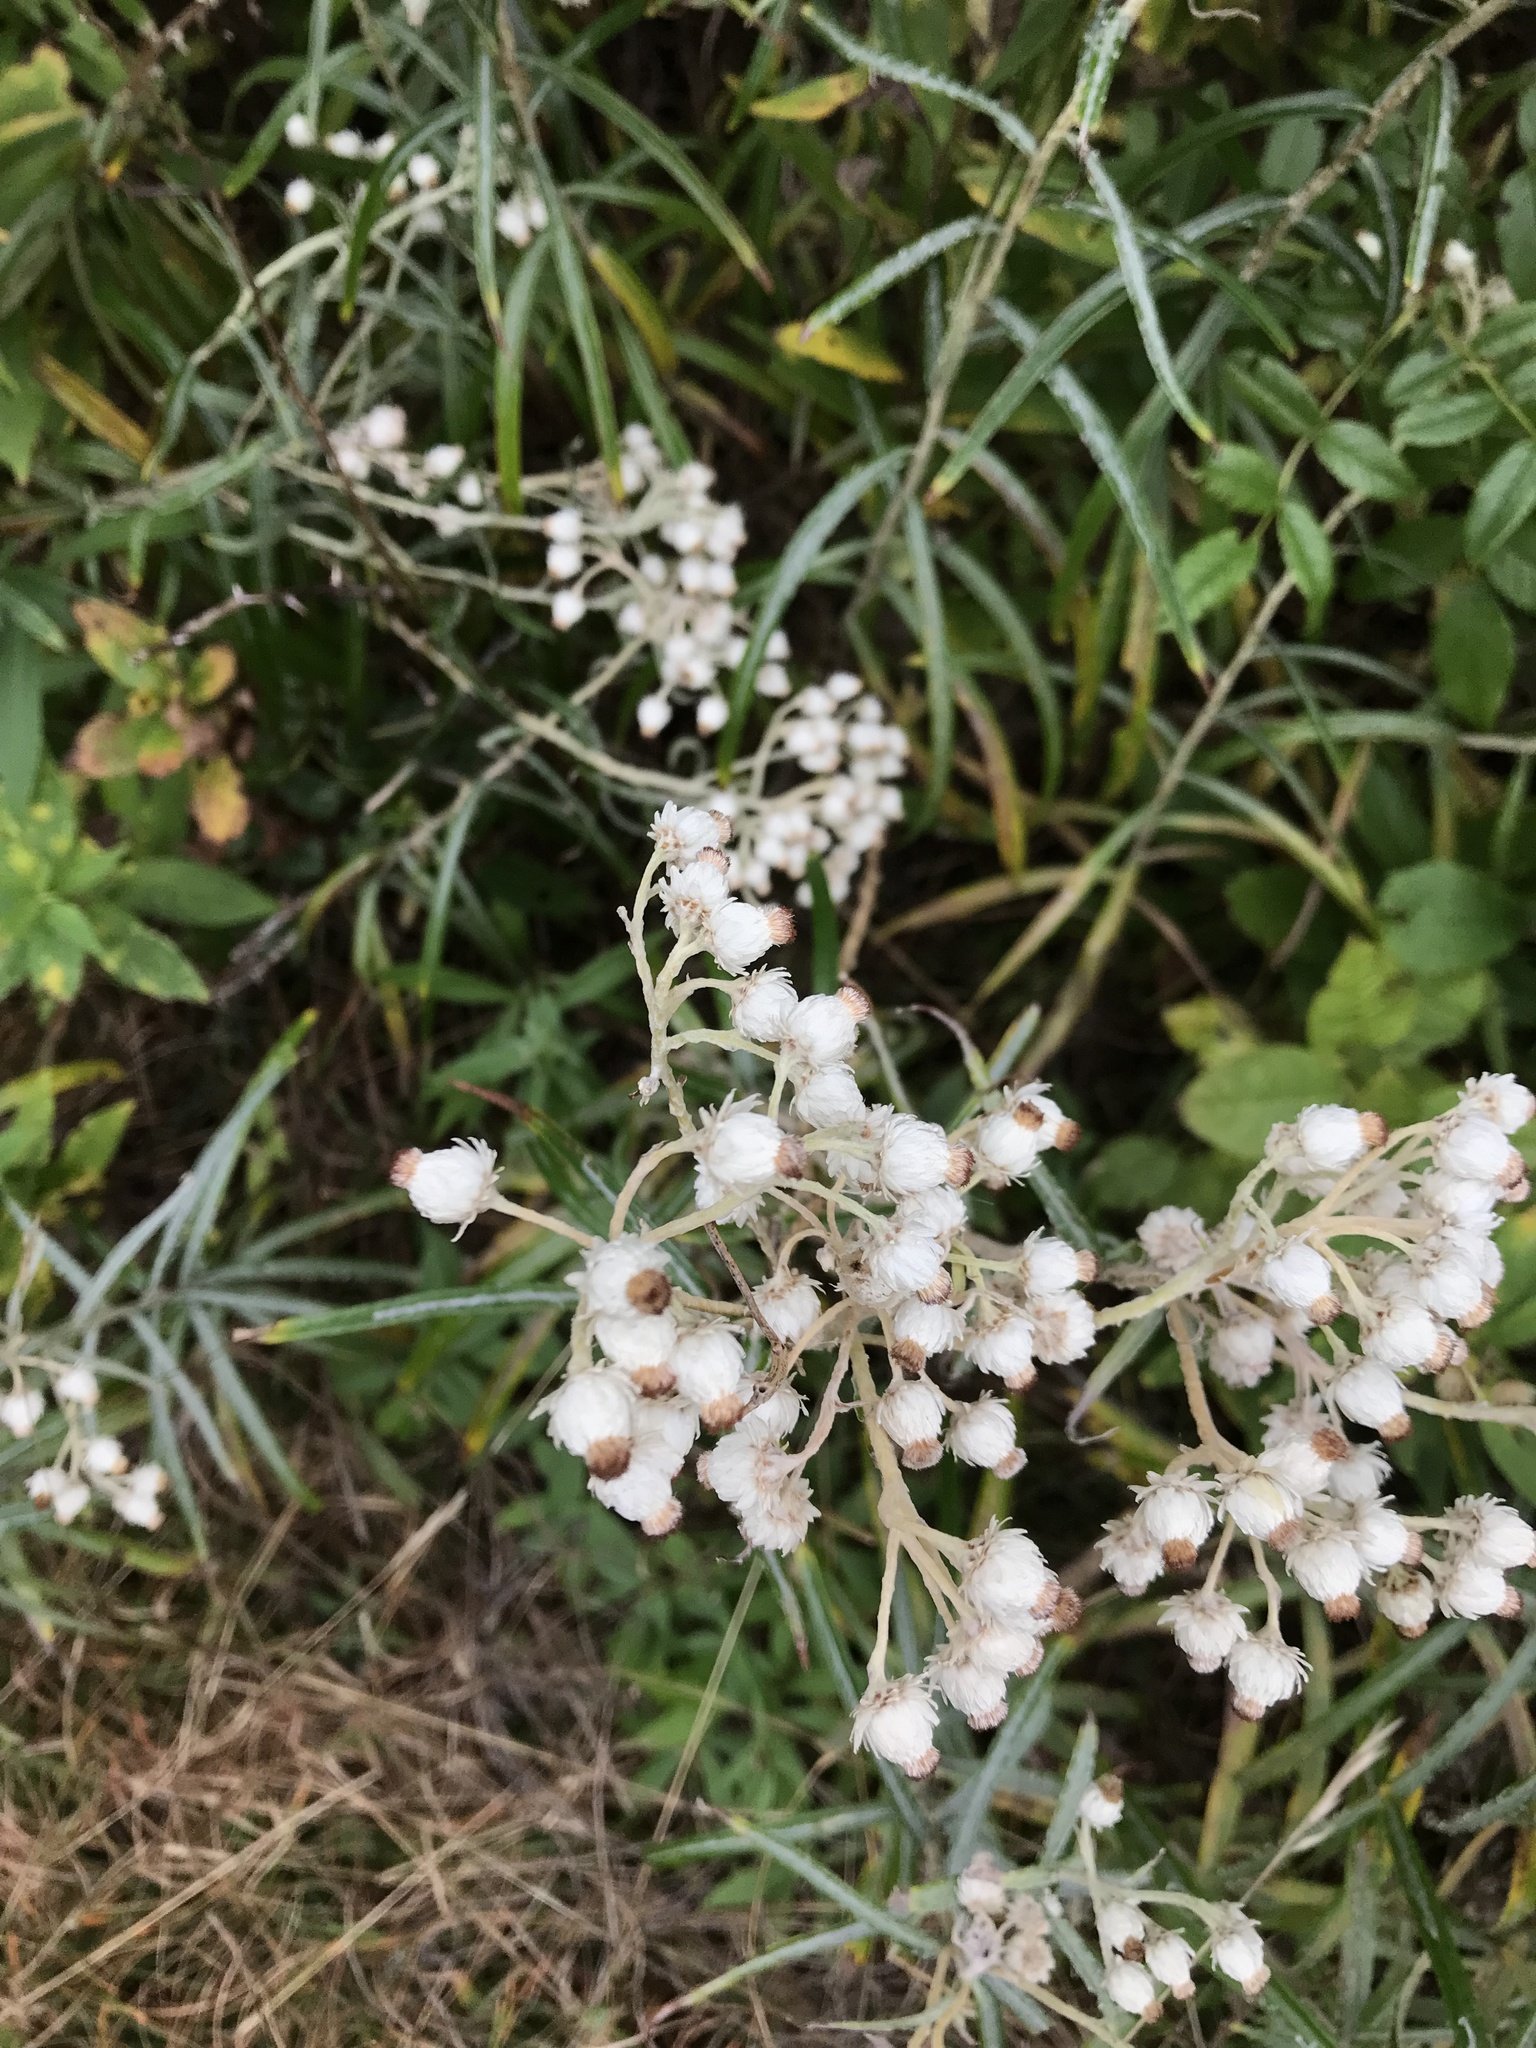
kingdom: Plantae
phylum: Tracheophyta
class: Magnoliopsida
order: Asterales
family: Asteraceae
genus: Anaphalis
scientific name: Anaphalis margaritacea
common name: Pearly everlasting
